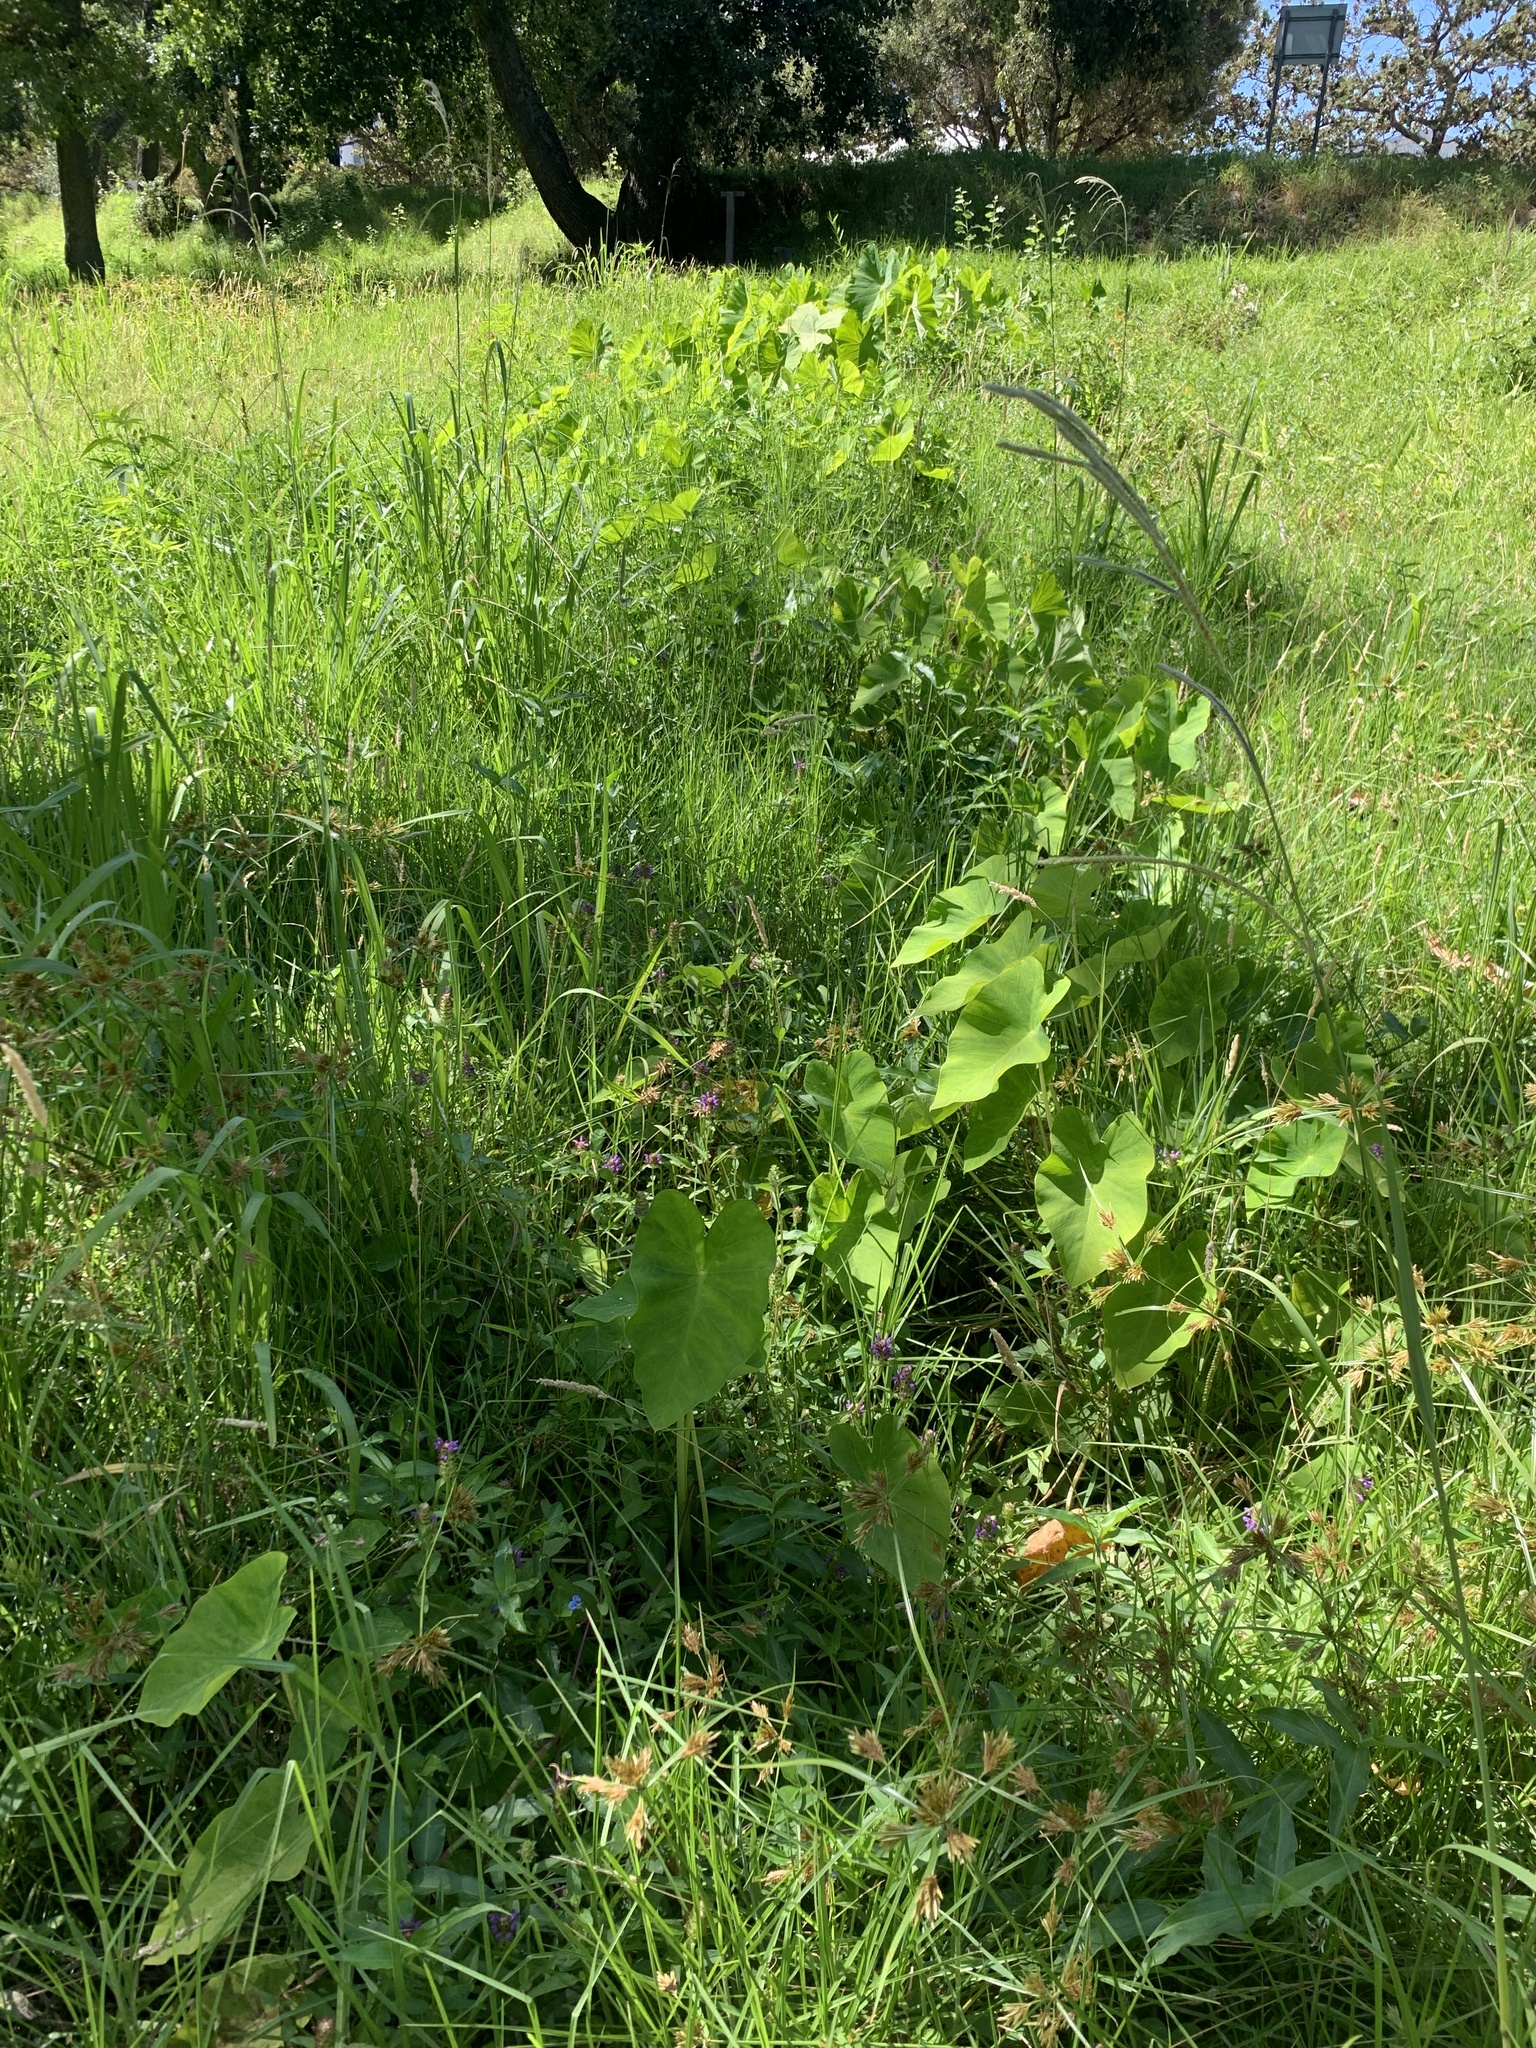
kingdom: Plantae
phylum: Tracheophyta
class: Liliopsida
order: Alismatales
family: Araceae
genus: Colocasia
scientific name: Colocasia esculenta
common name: Taro
